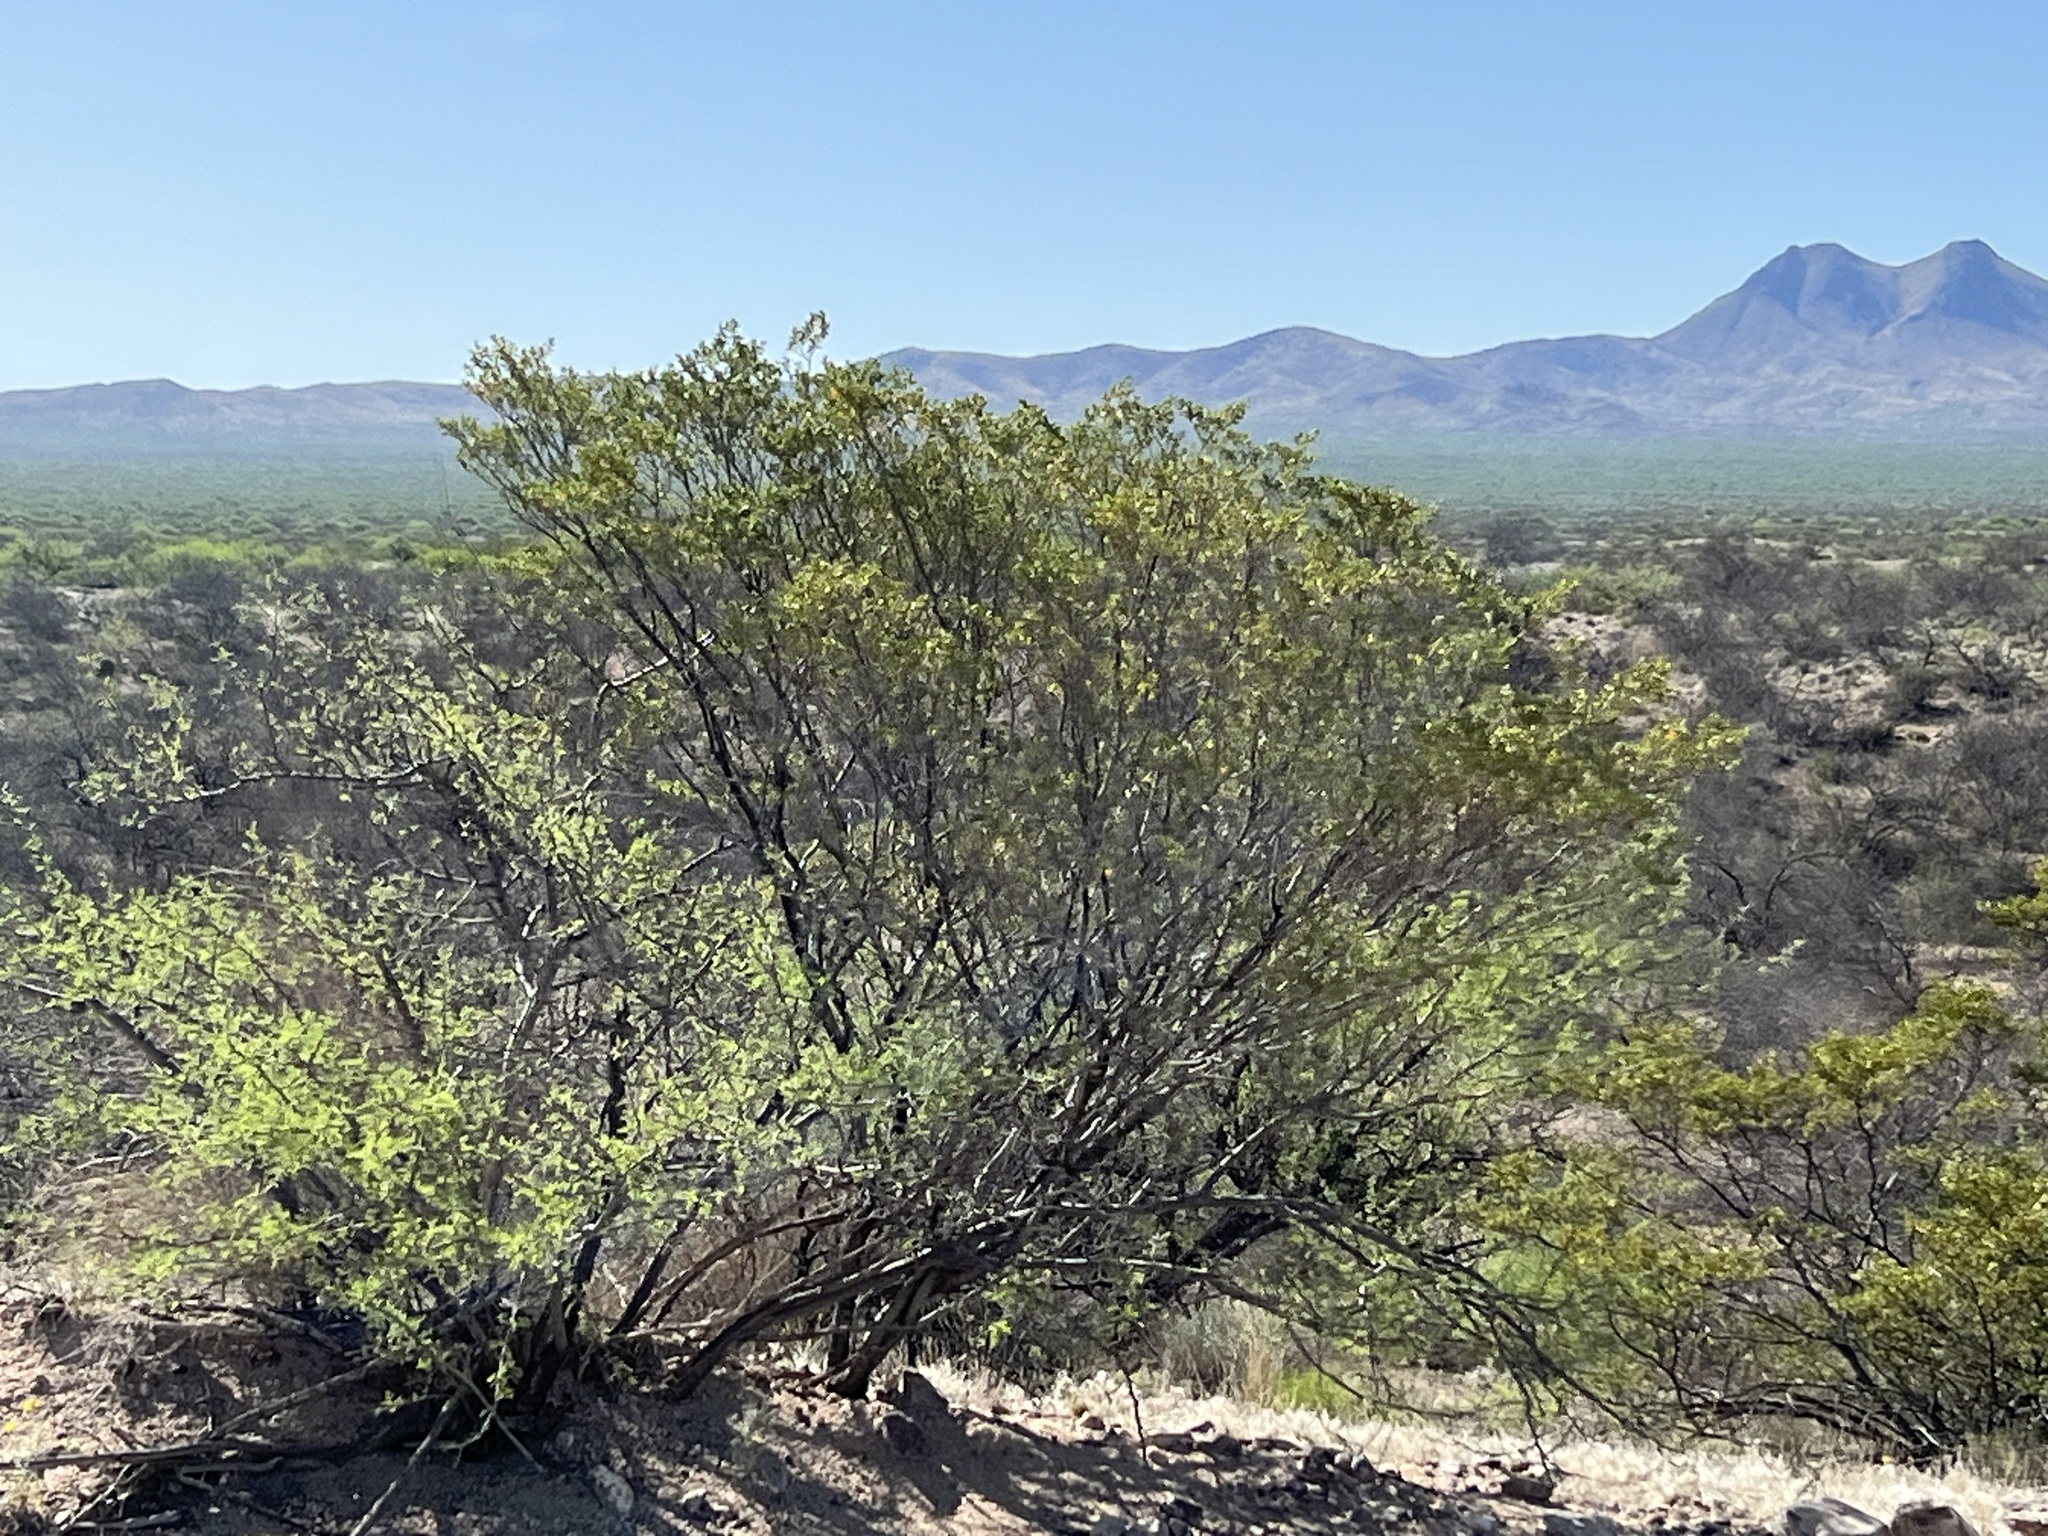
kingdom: Plantae
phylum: Tracheophyta
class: Magnoliopsida
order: Zygophyllales
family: Zygophyllaceae
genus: Larrea
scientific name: Larrea tridentata
